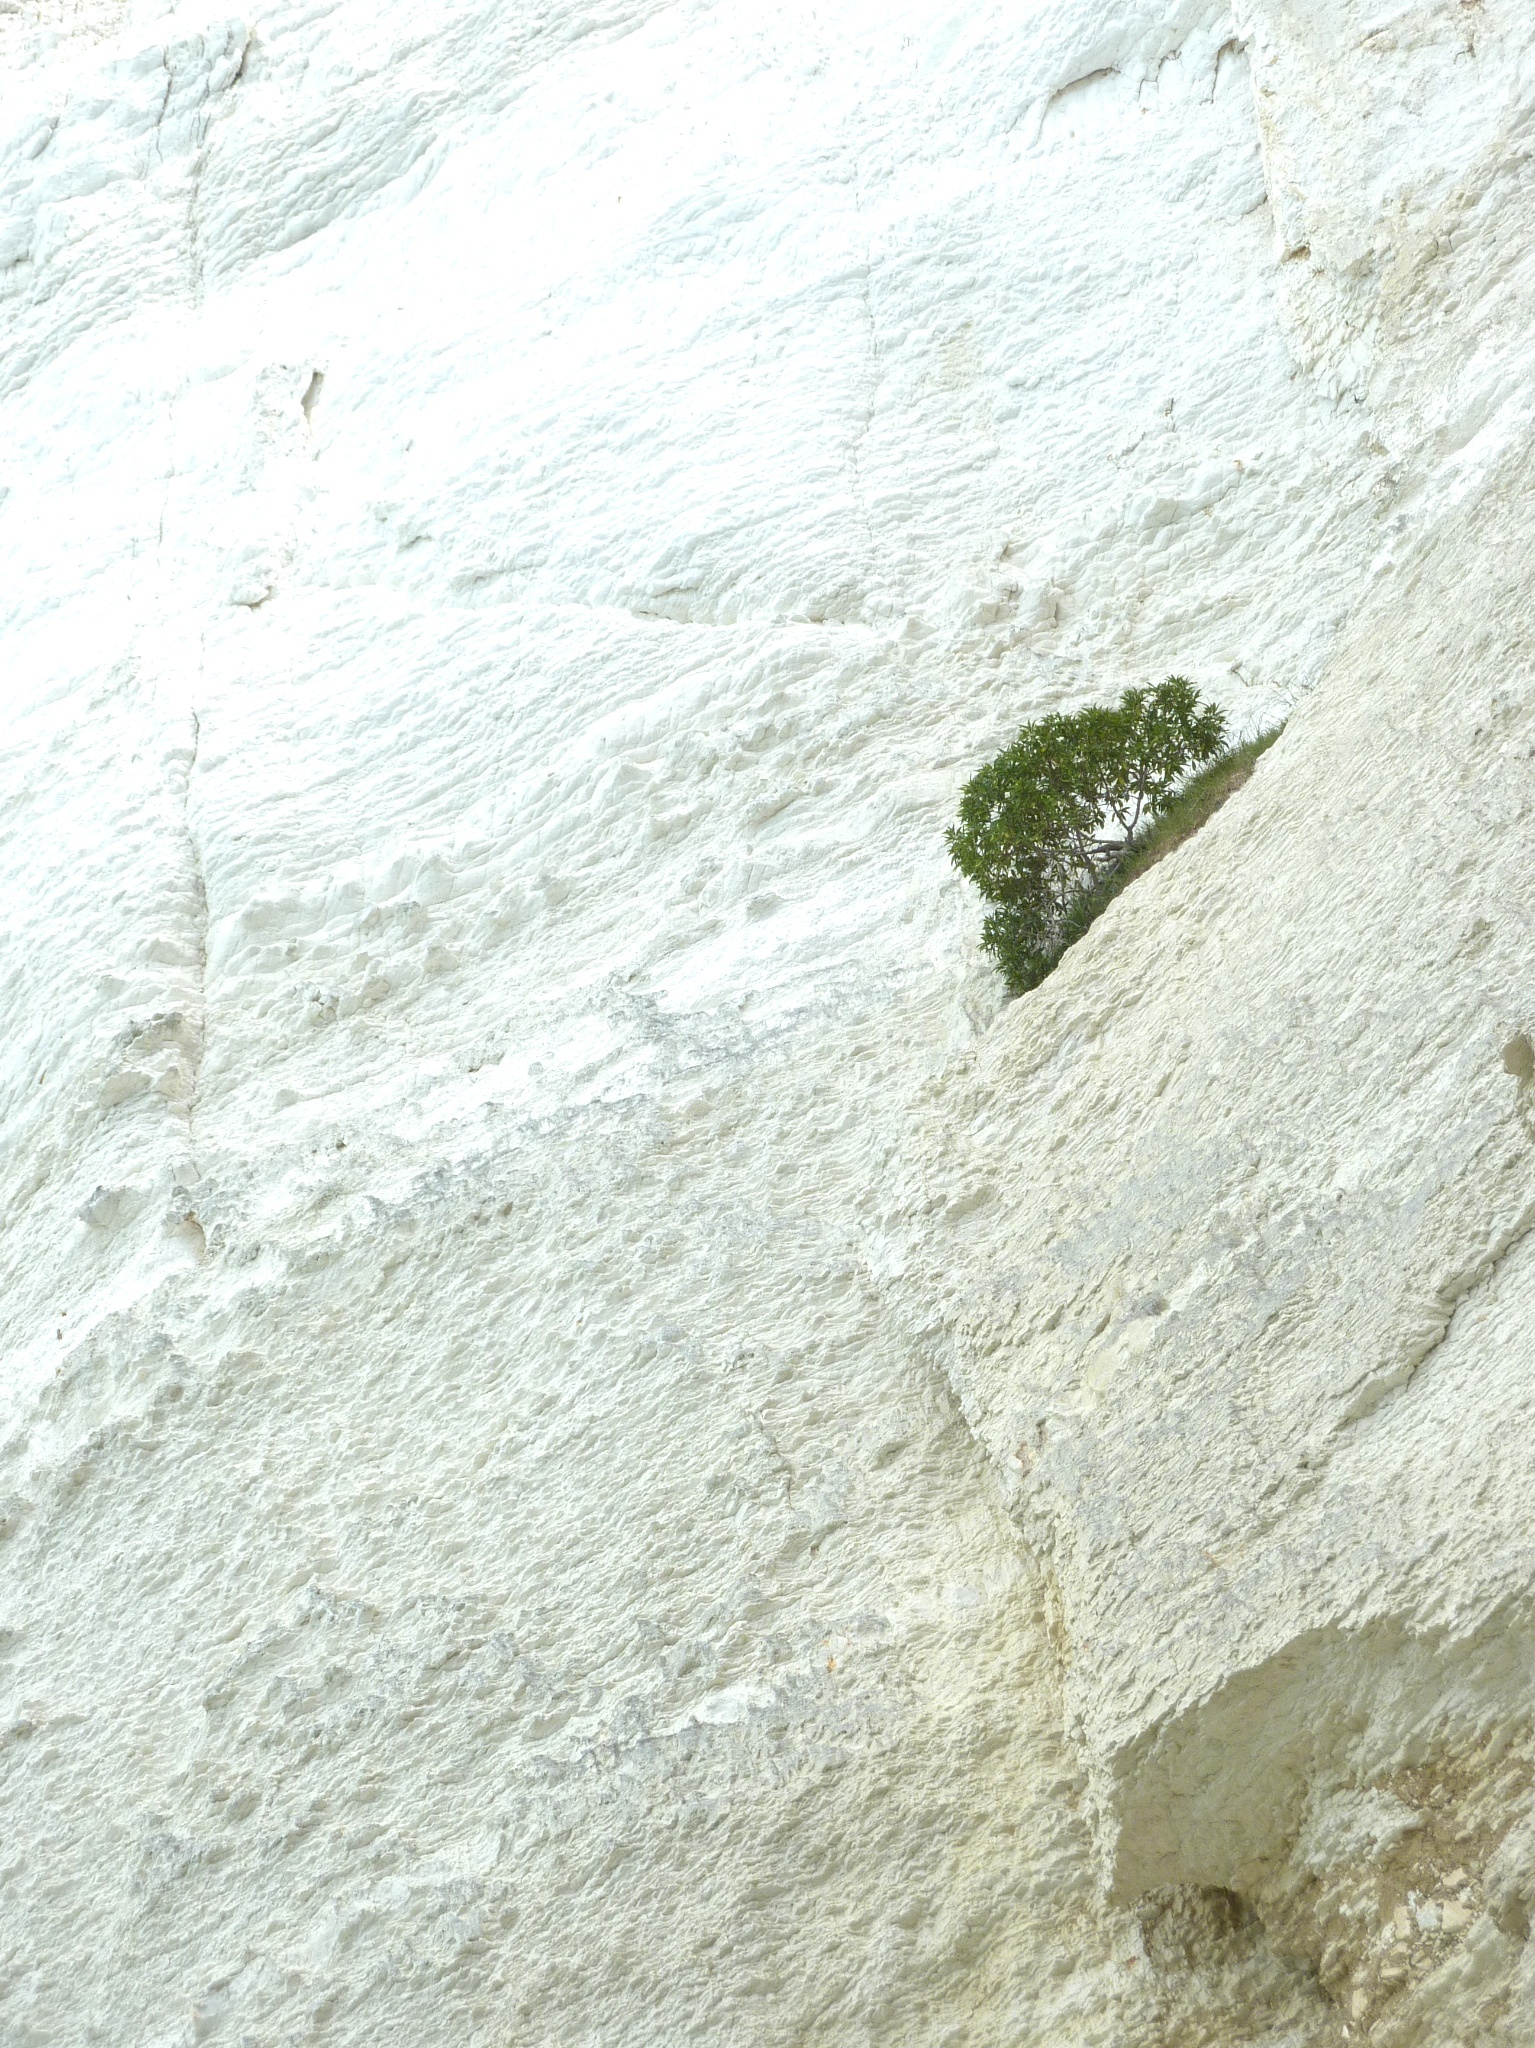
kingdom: Plantae
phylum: Tracheophyta
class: Magnoliopsida
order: Lamiales
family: Scrophulariaceae
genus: Myoporum
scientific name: Myoporum laetum
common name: Ngaio tree
